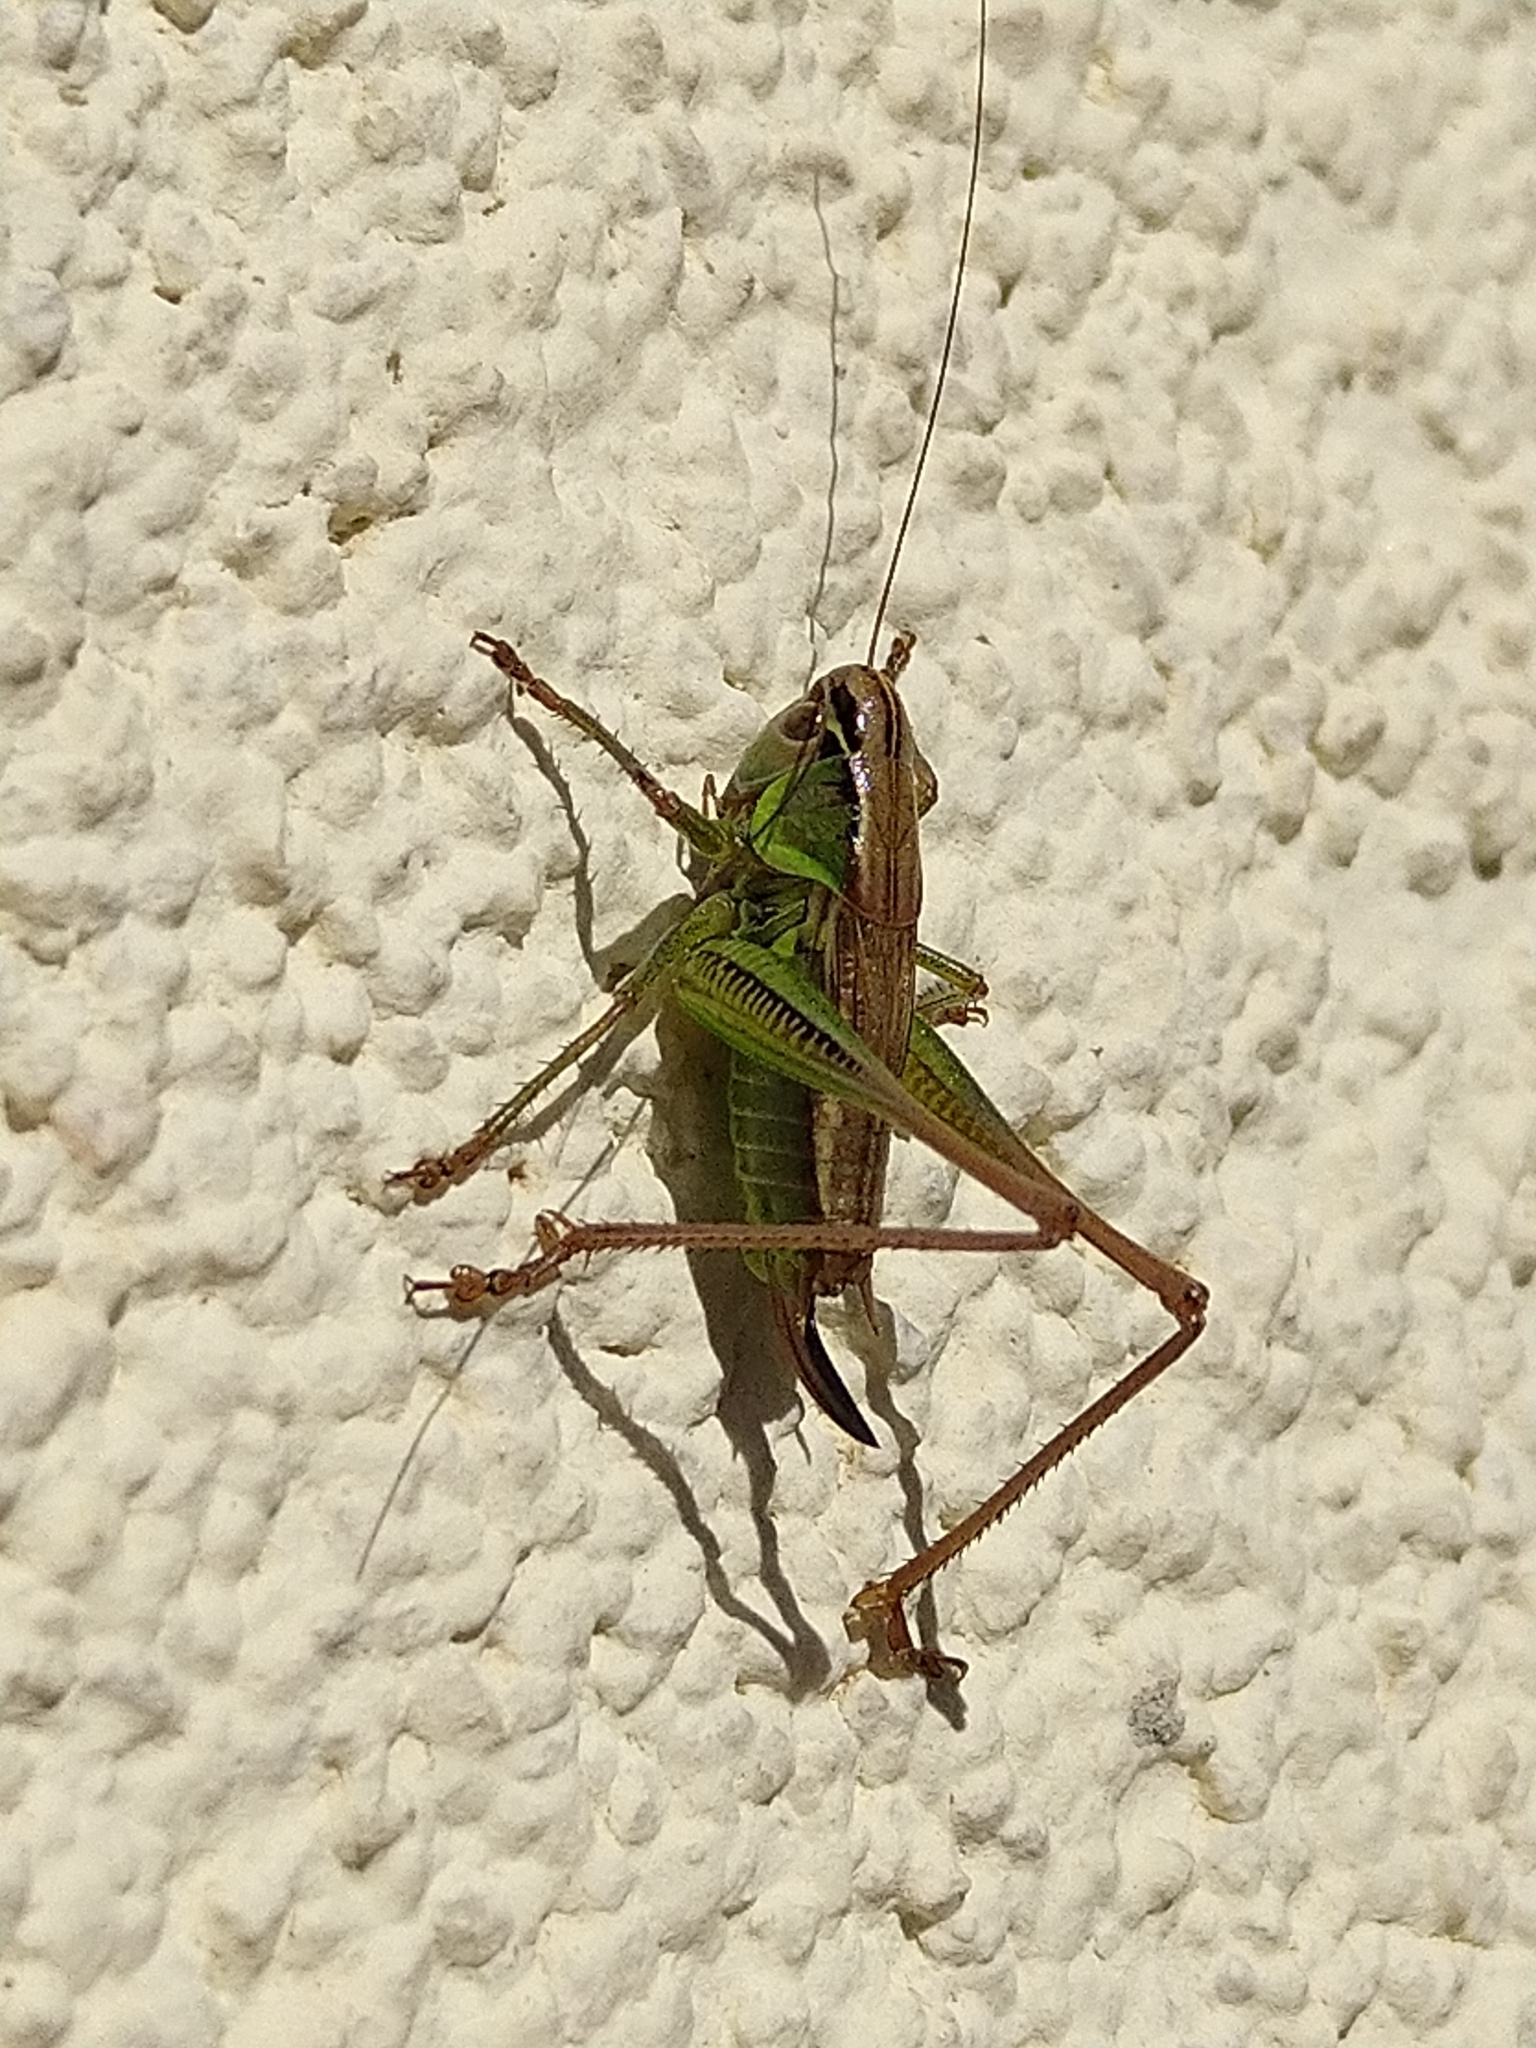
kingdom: Animalia
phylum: Arthropoda
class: Insecta
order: Orthoptera
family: Tettigoniidae
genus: Roeseliana
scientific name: Roeseliana roeselii
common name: Roesel's bush cricket
